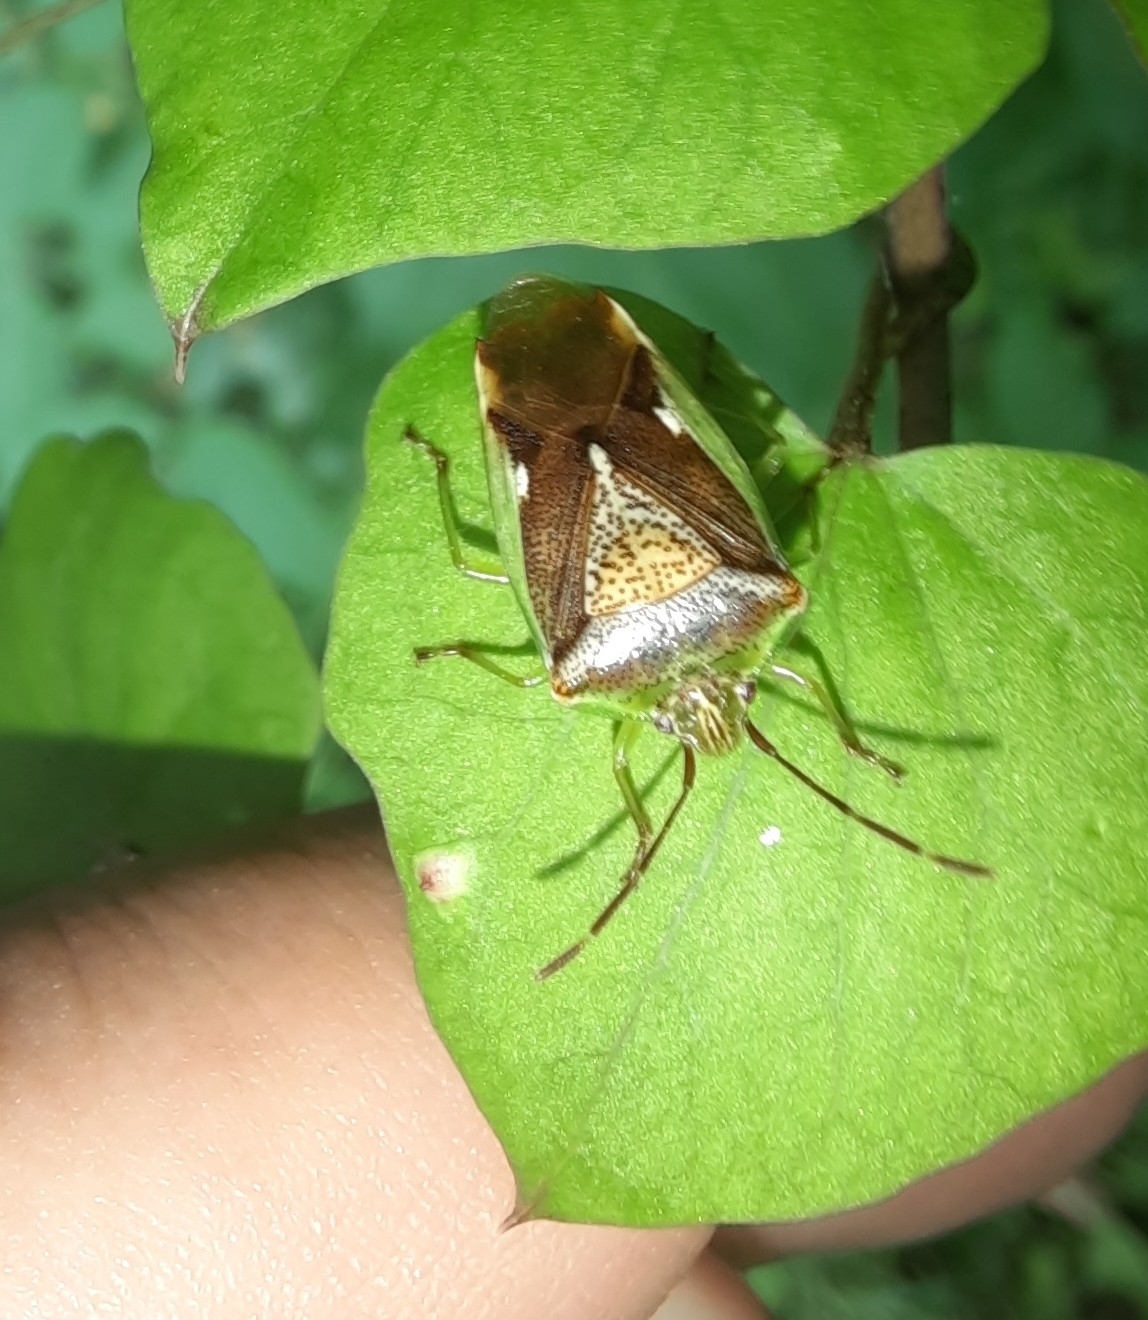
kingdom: Animalia
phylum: Arthropoda
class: Insecta
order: Hemiptera
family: Acanthosomatidae
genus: Oncacontias
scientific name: Oncacontias vittatus
